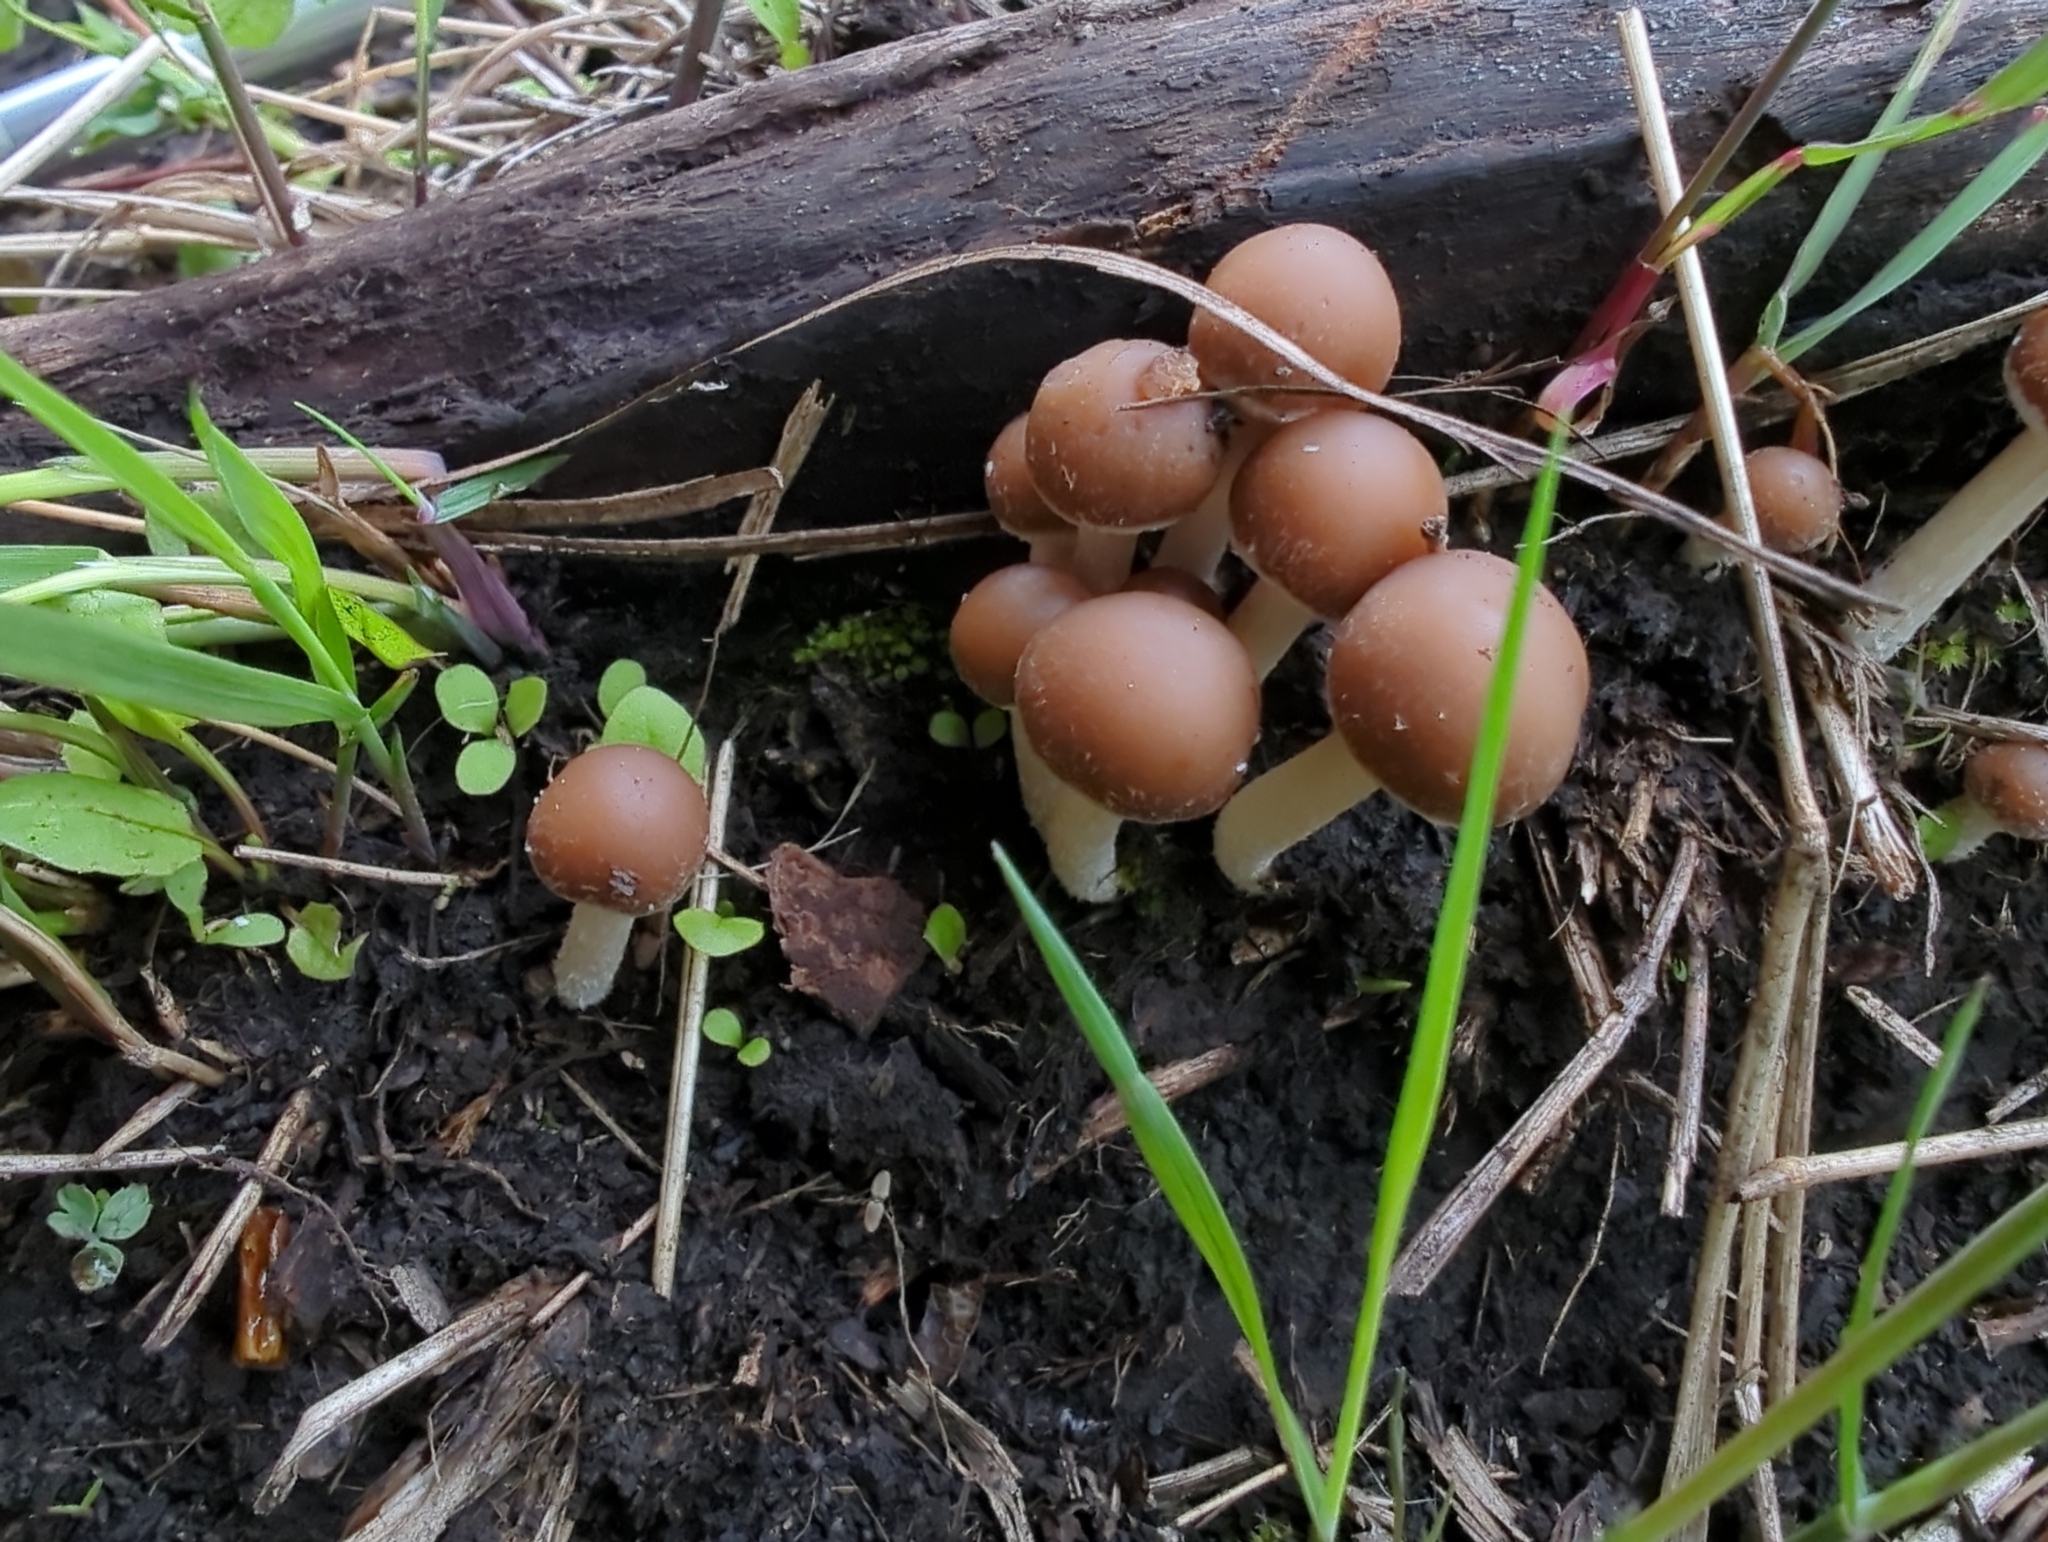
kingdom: Fungi
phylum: Basidiomycota
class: Agaricomycetes
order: Agaricales
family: Hymenogastraceae
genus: Galerina
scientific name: Galerina marginata
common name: Funeral bell
